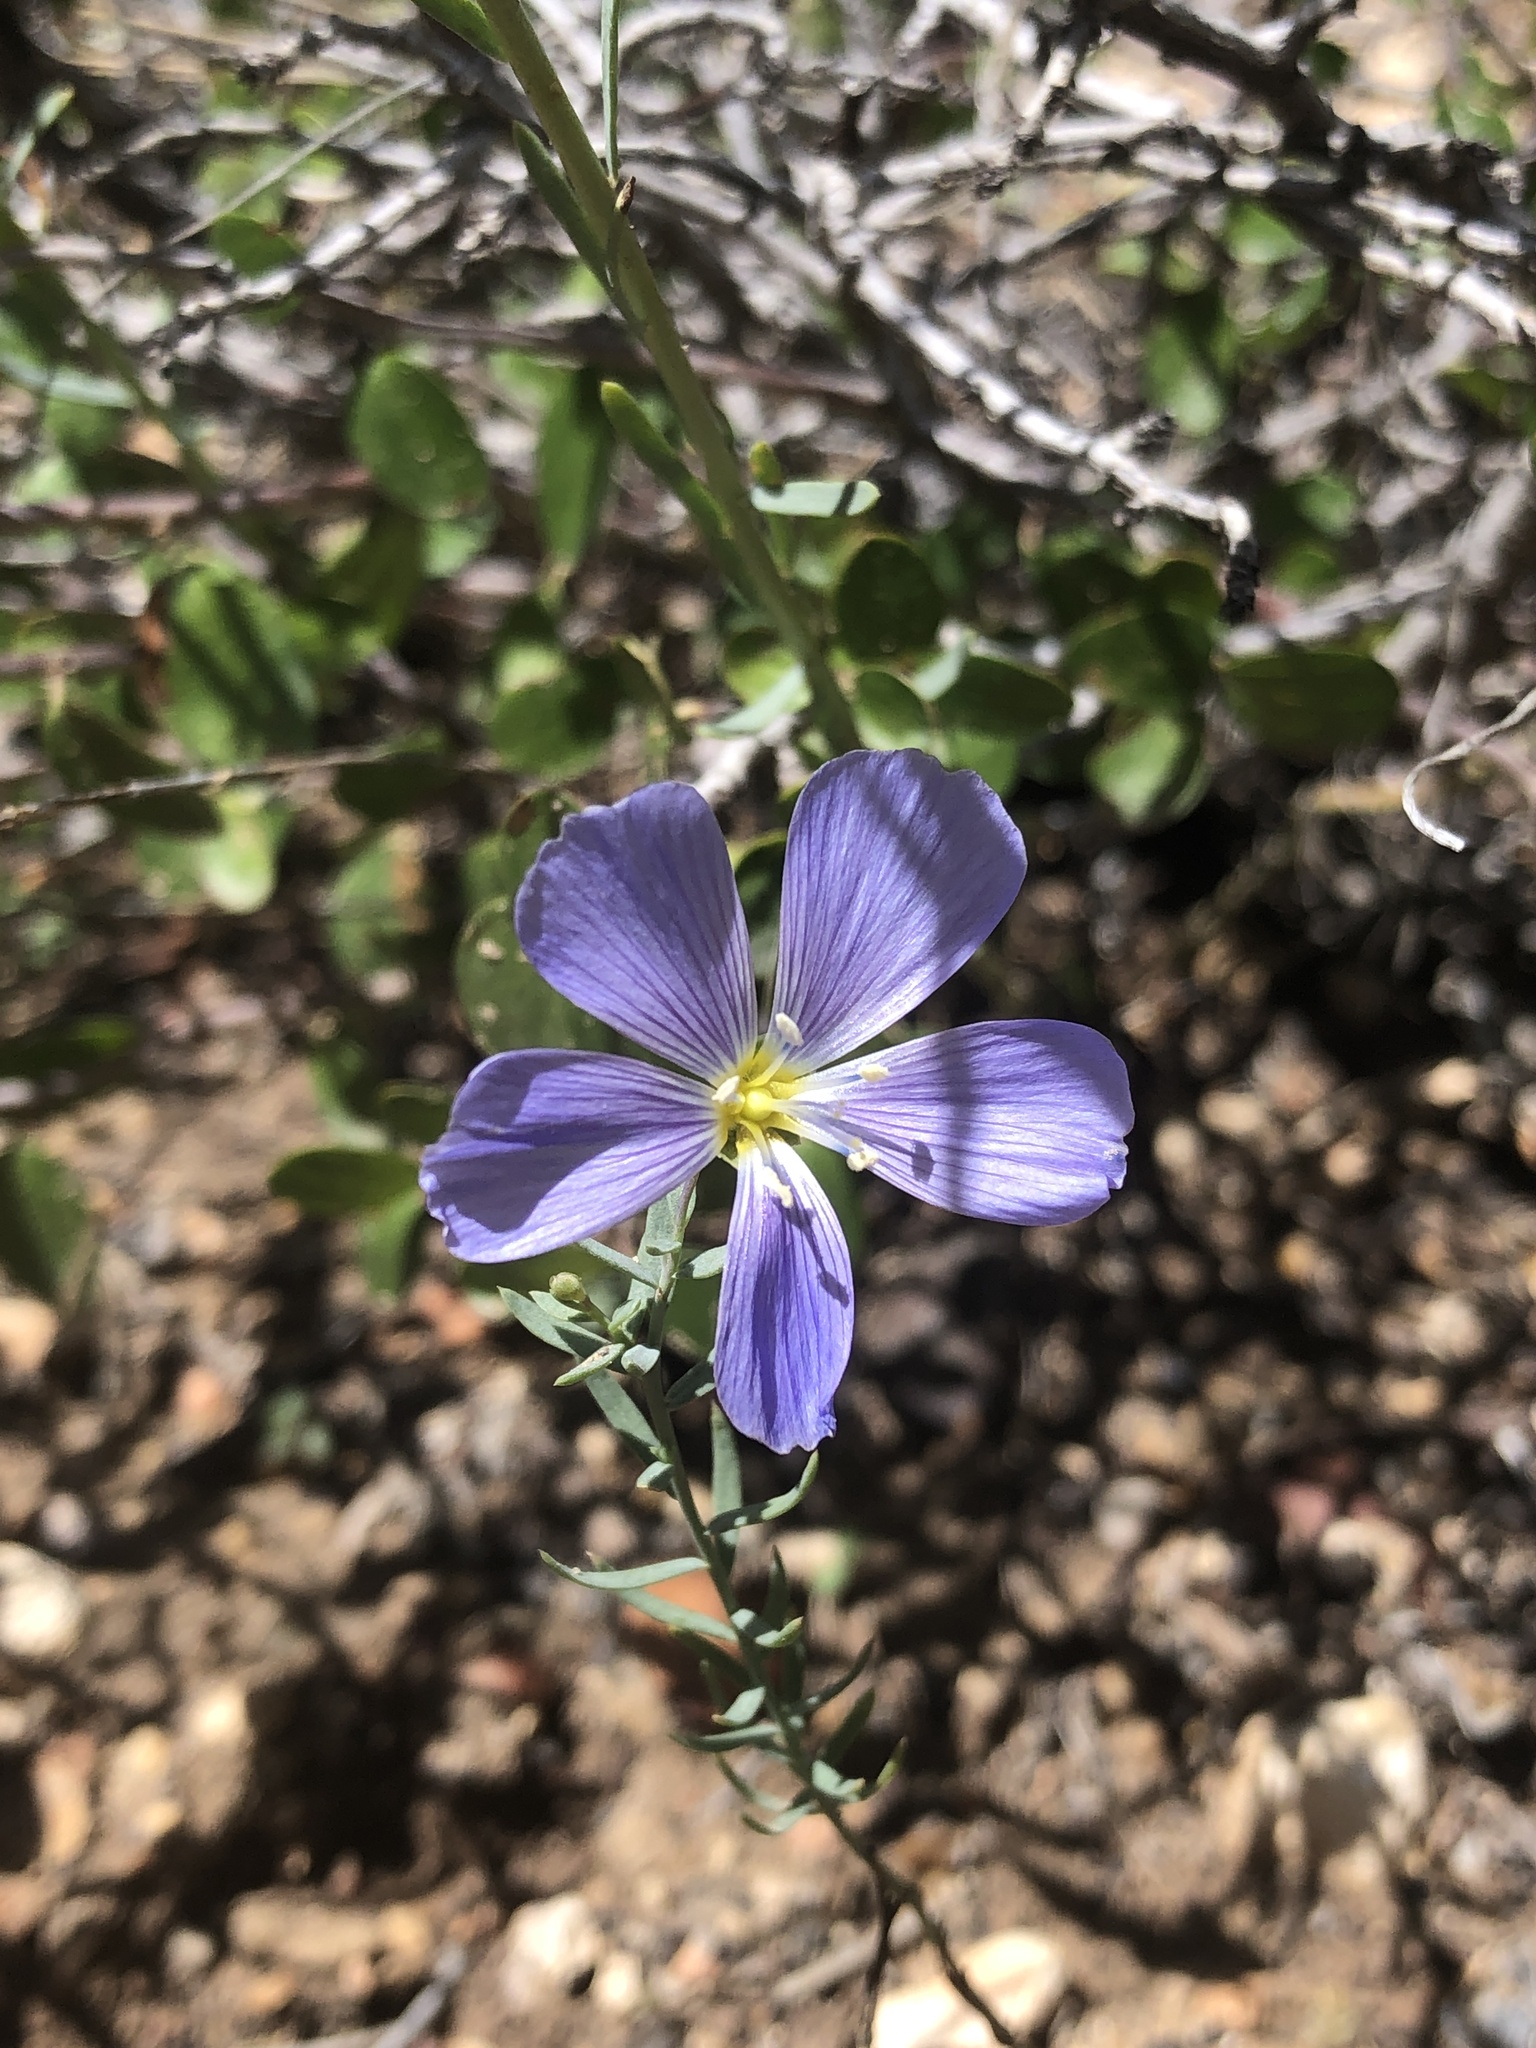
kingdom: Plantae
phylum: Tracheophyta
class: Magnoliopsida
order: Malpighiales
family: Linaceae
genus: Linum
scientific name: Linum lewisii
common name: Prairie flax
